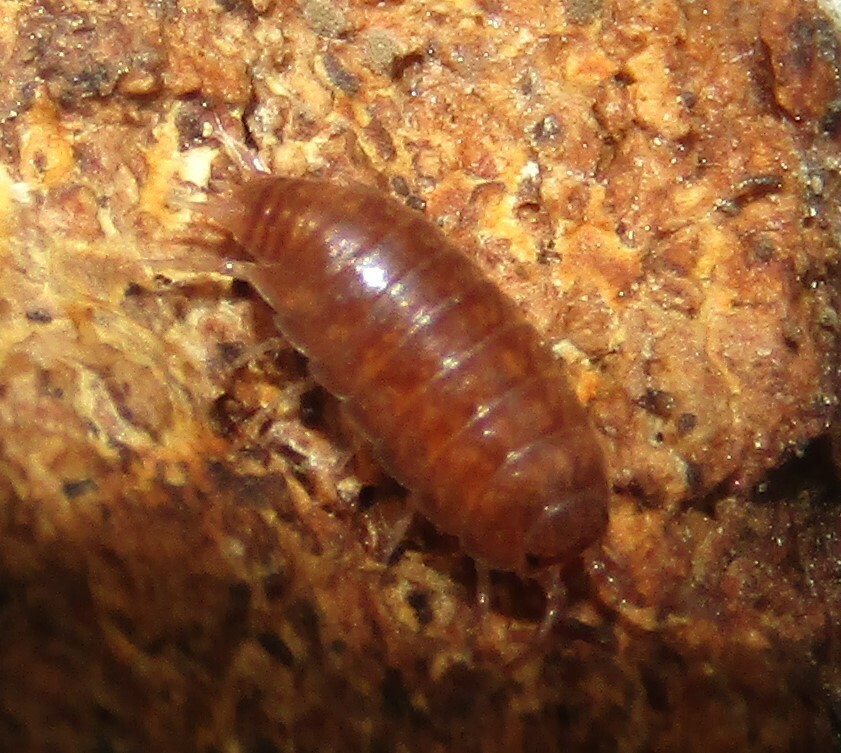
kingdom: Animalia
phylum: Arthropoda
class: Malacostraca
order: Isopoda
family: Trichoniscidae
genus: Hyloniscus
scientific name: Hyloniscus riparius
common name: Isopod
